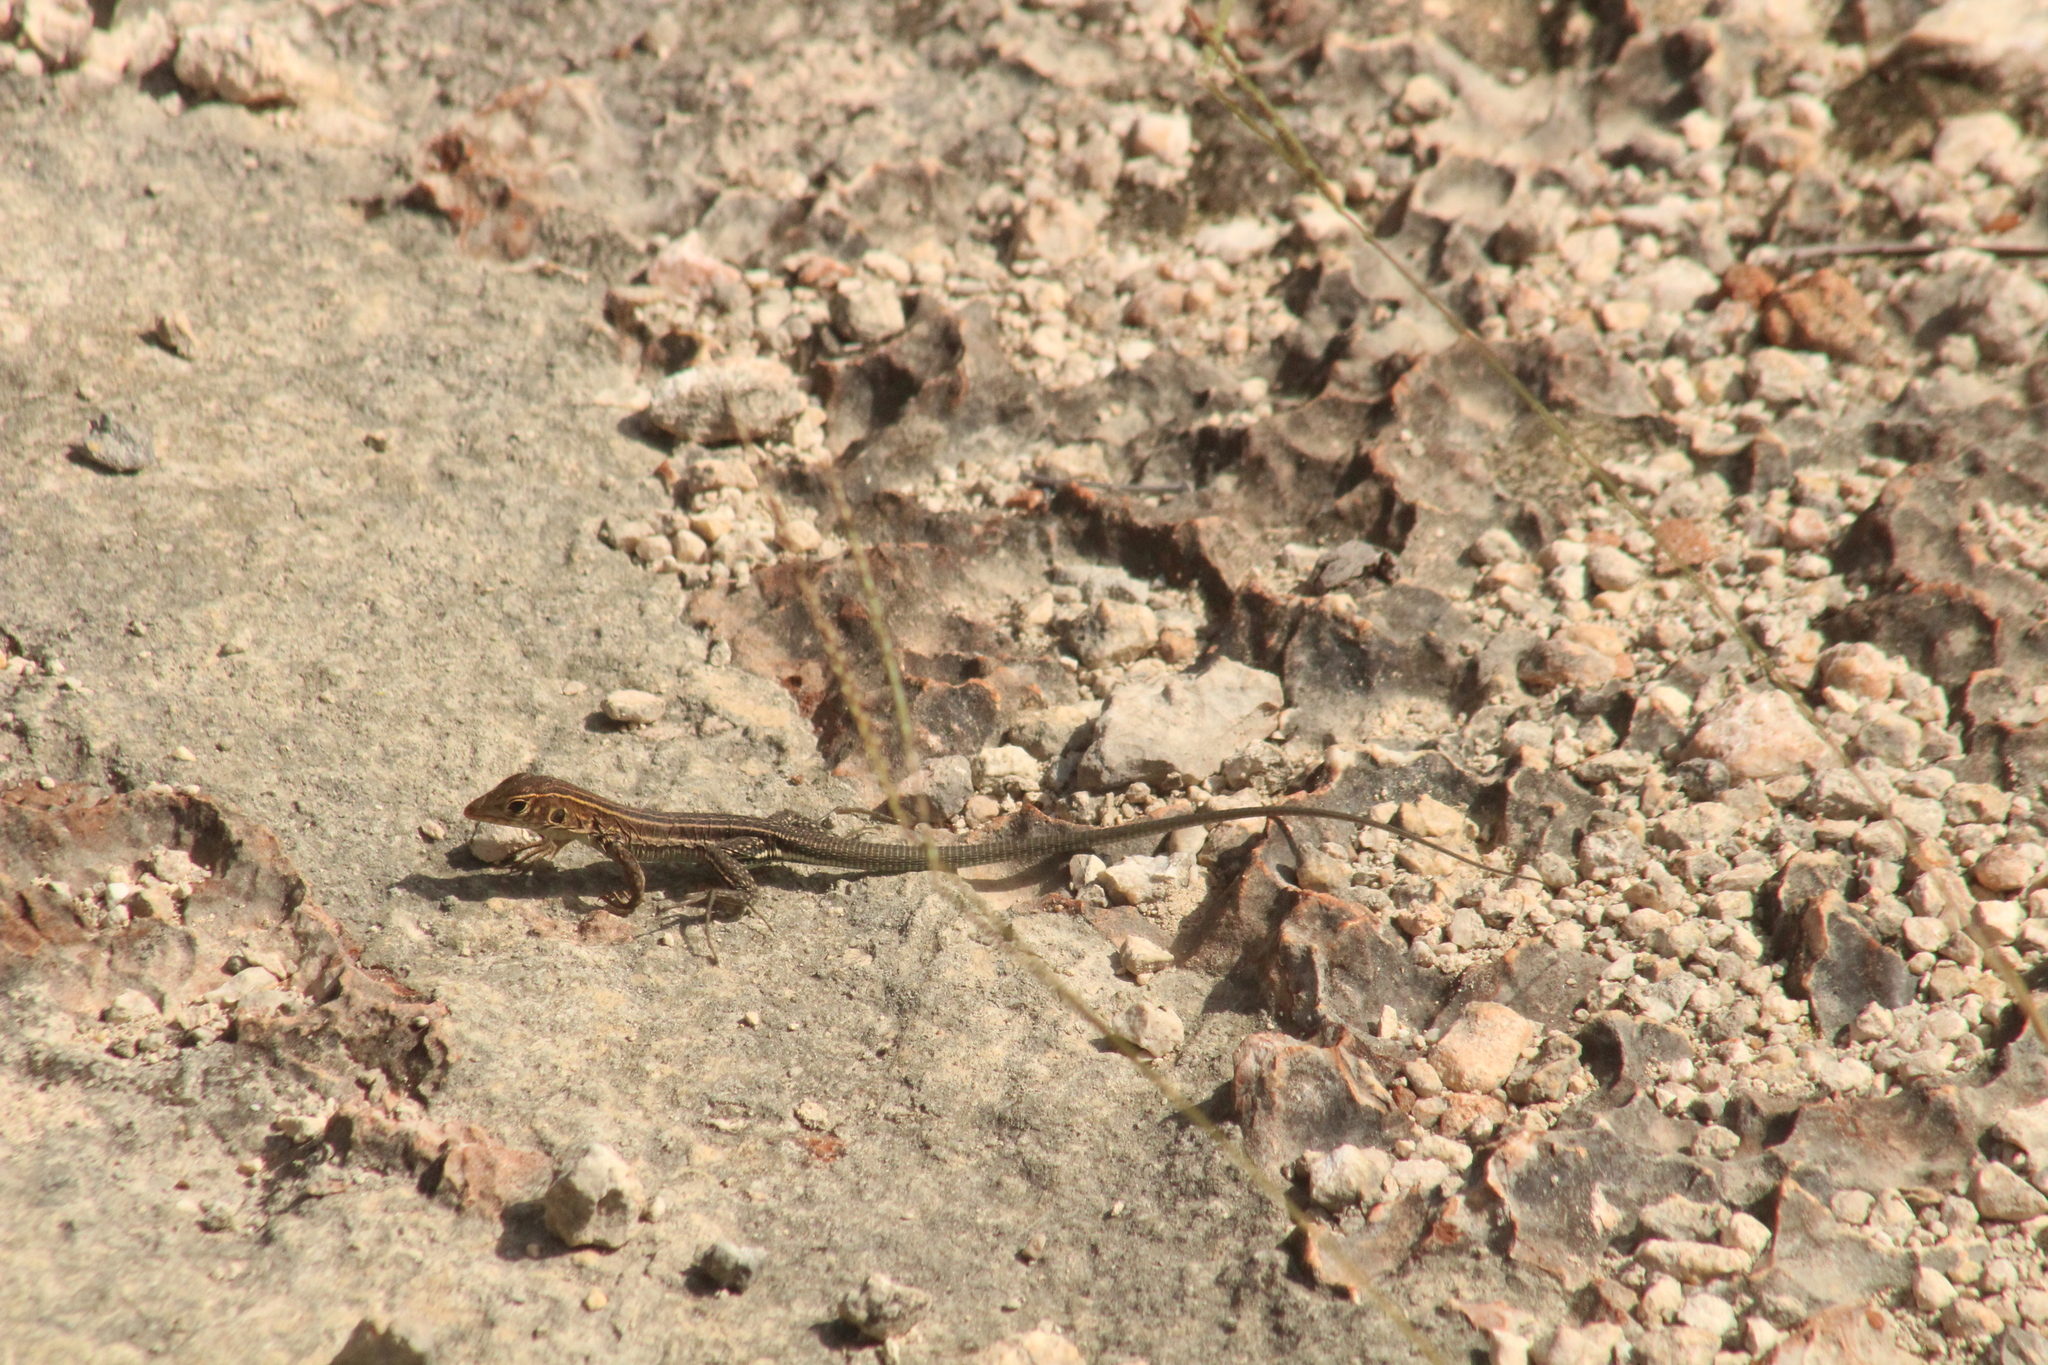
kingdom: Animalia
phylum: Chordata
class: Squamata
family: Teiidae
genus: Pholidoscelis
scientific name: Pholidoscelis plei
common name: Anguilla bank ameiva
